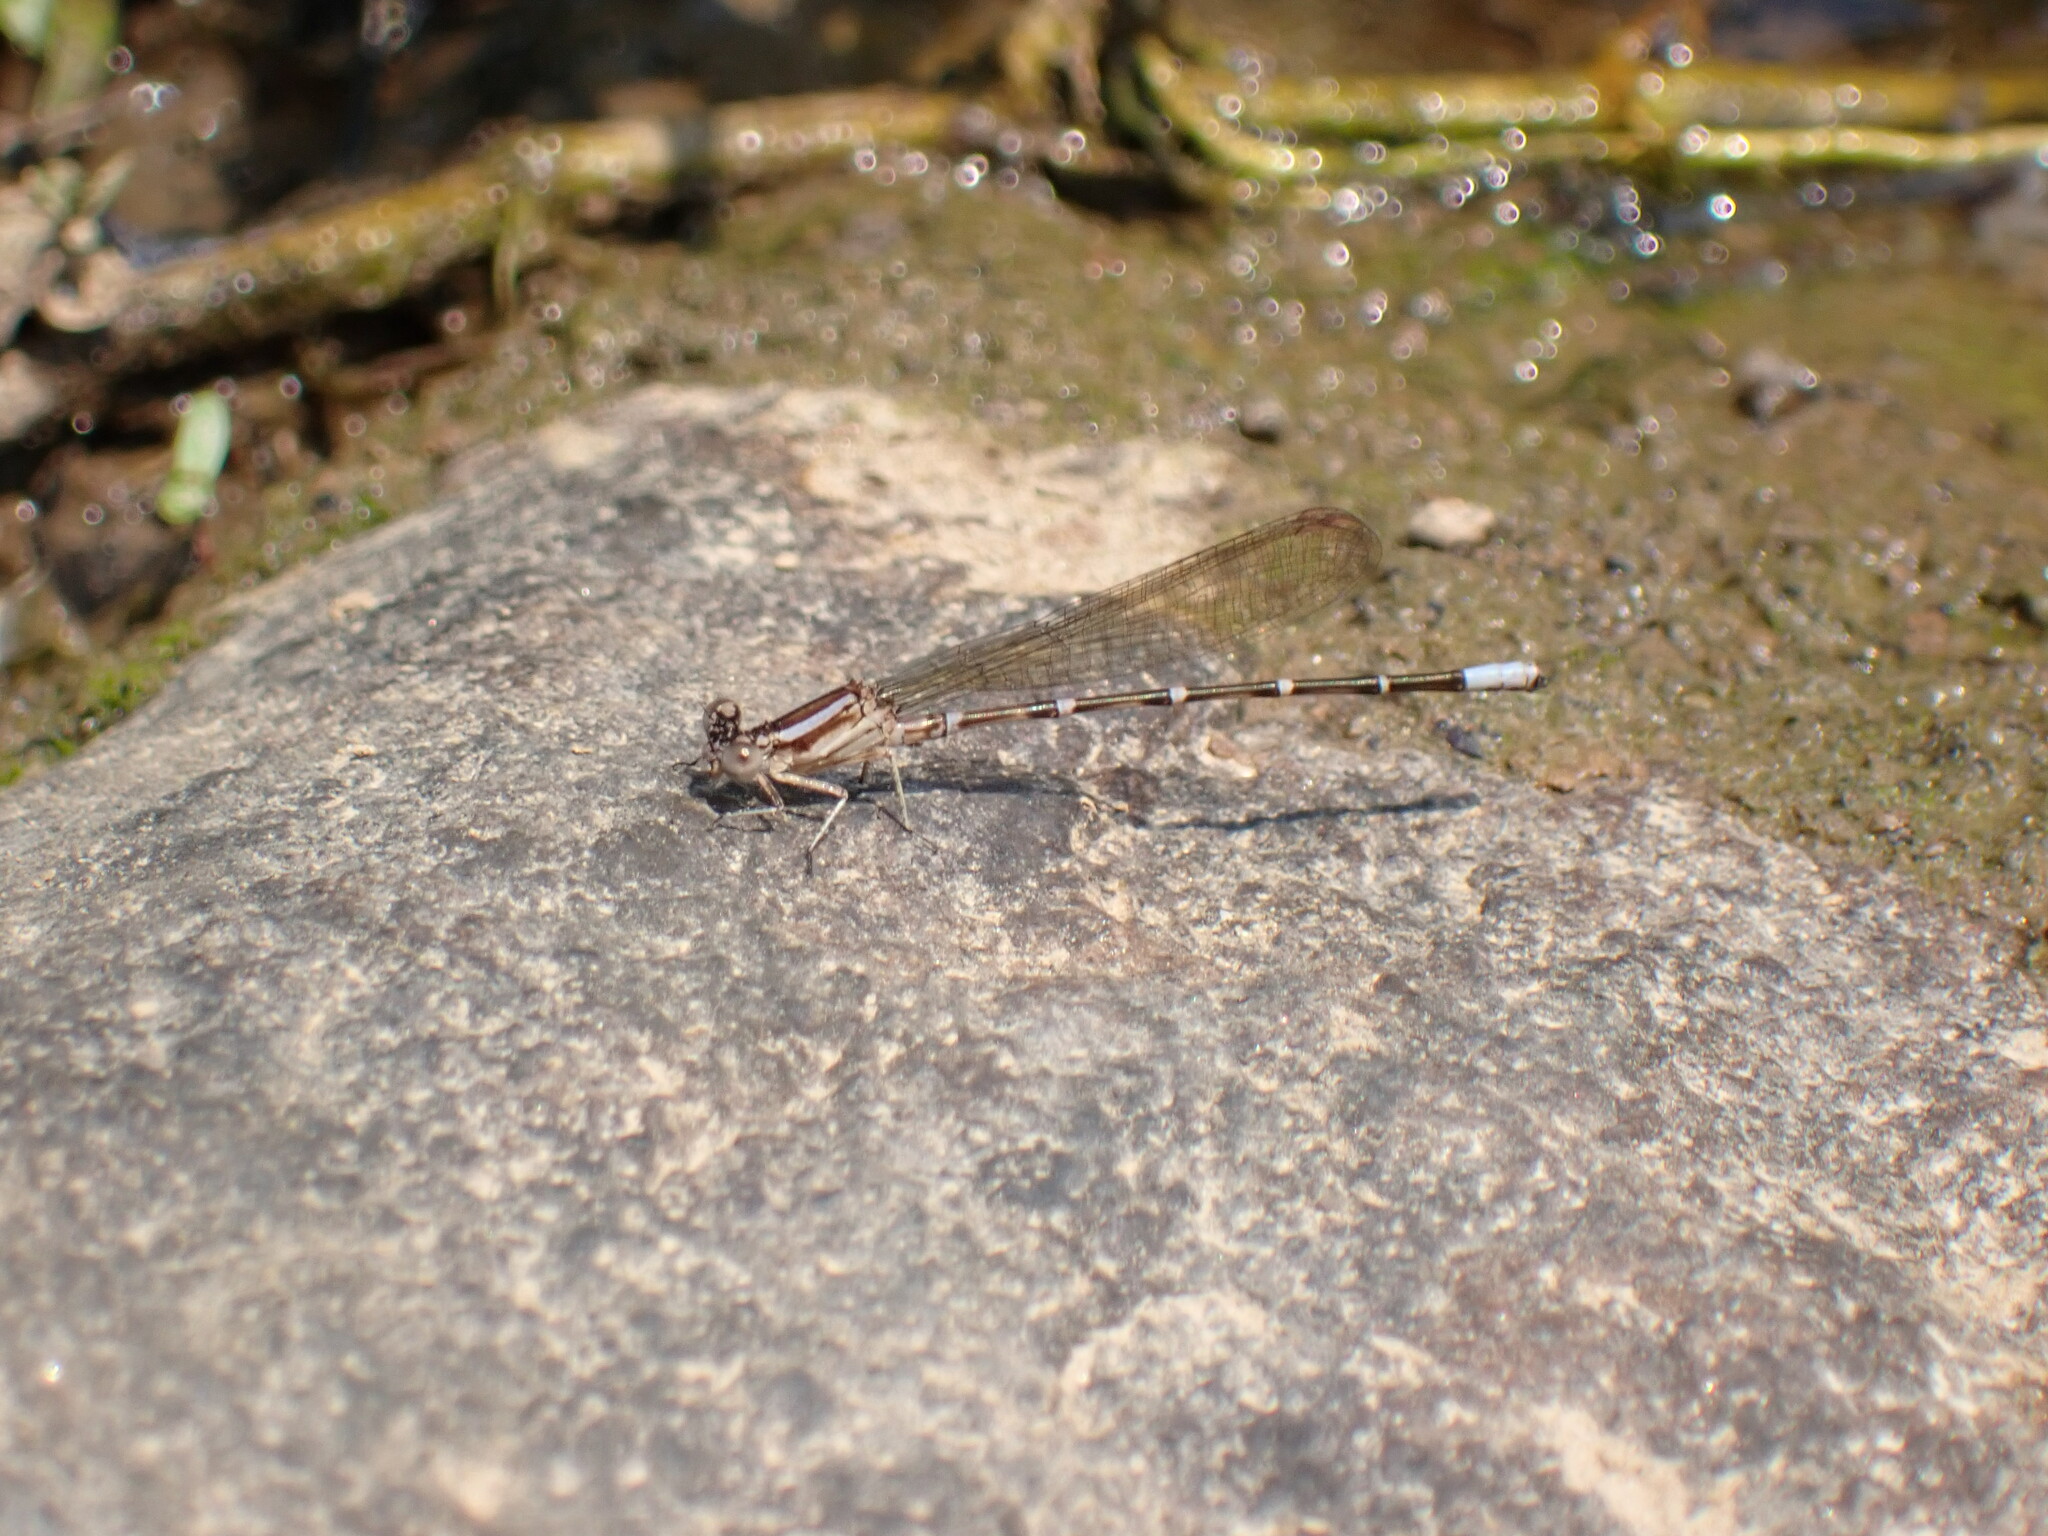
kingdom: Animalia
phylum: Arthropoda
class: Insecta
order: Odonata
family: Coenagrionidae
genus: Argia
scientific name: Argia sedula
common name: Blue-ringed dancer
